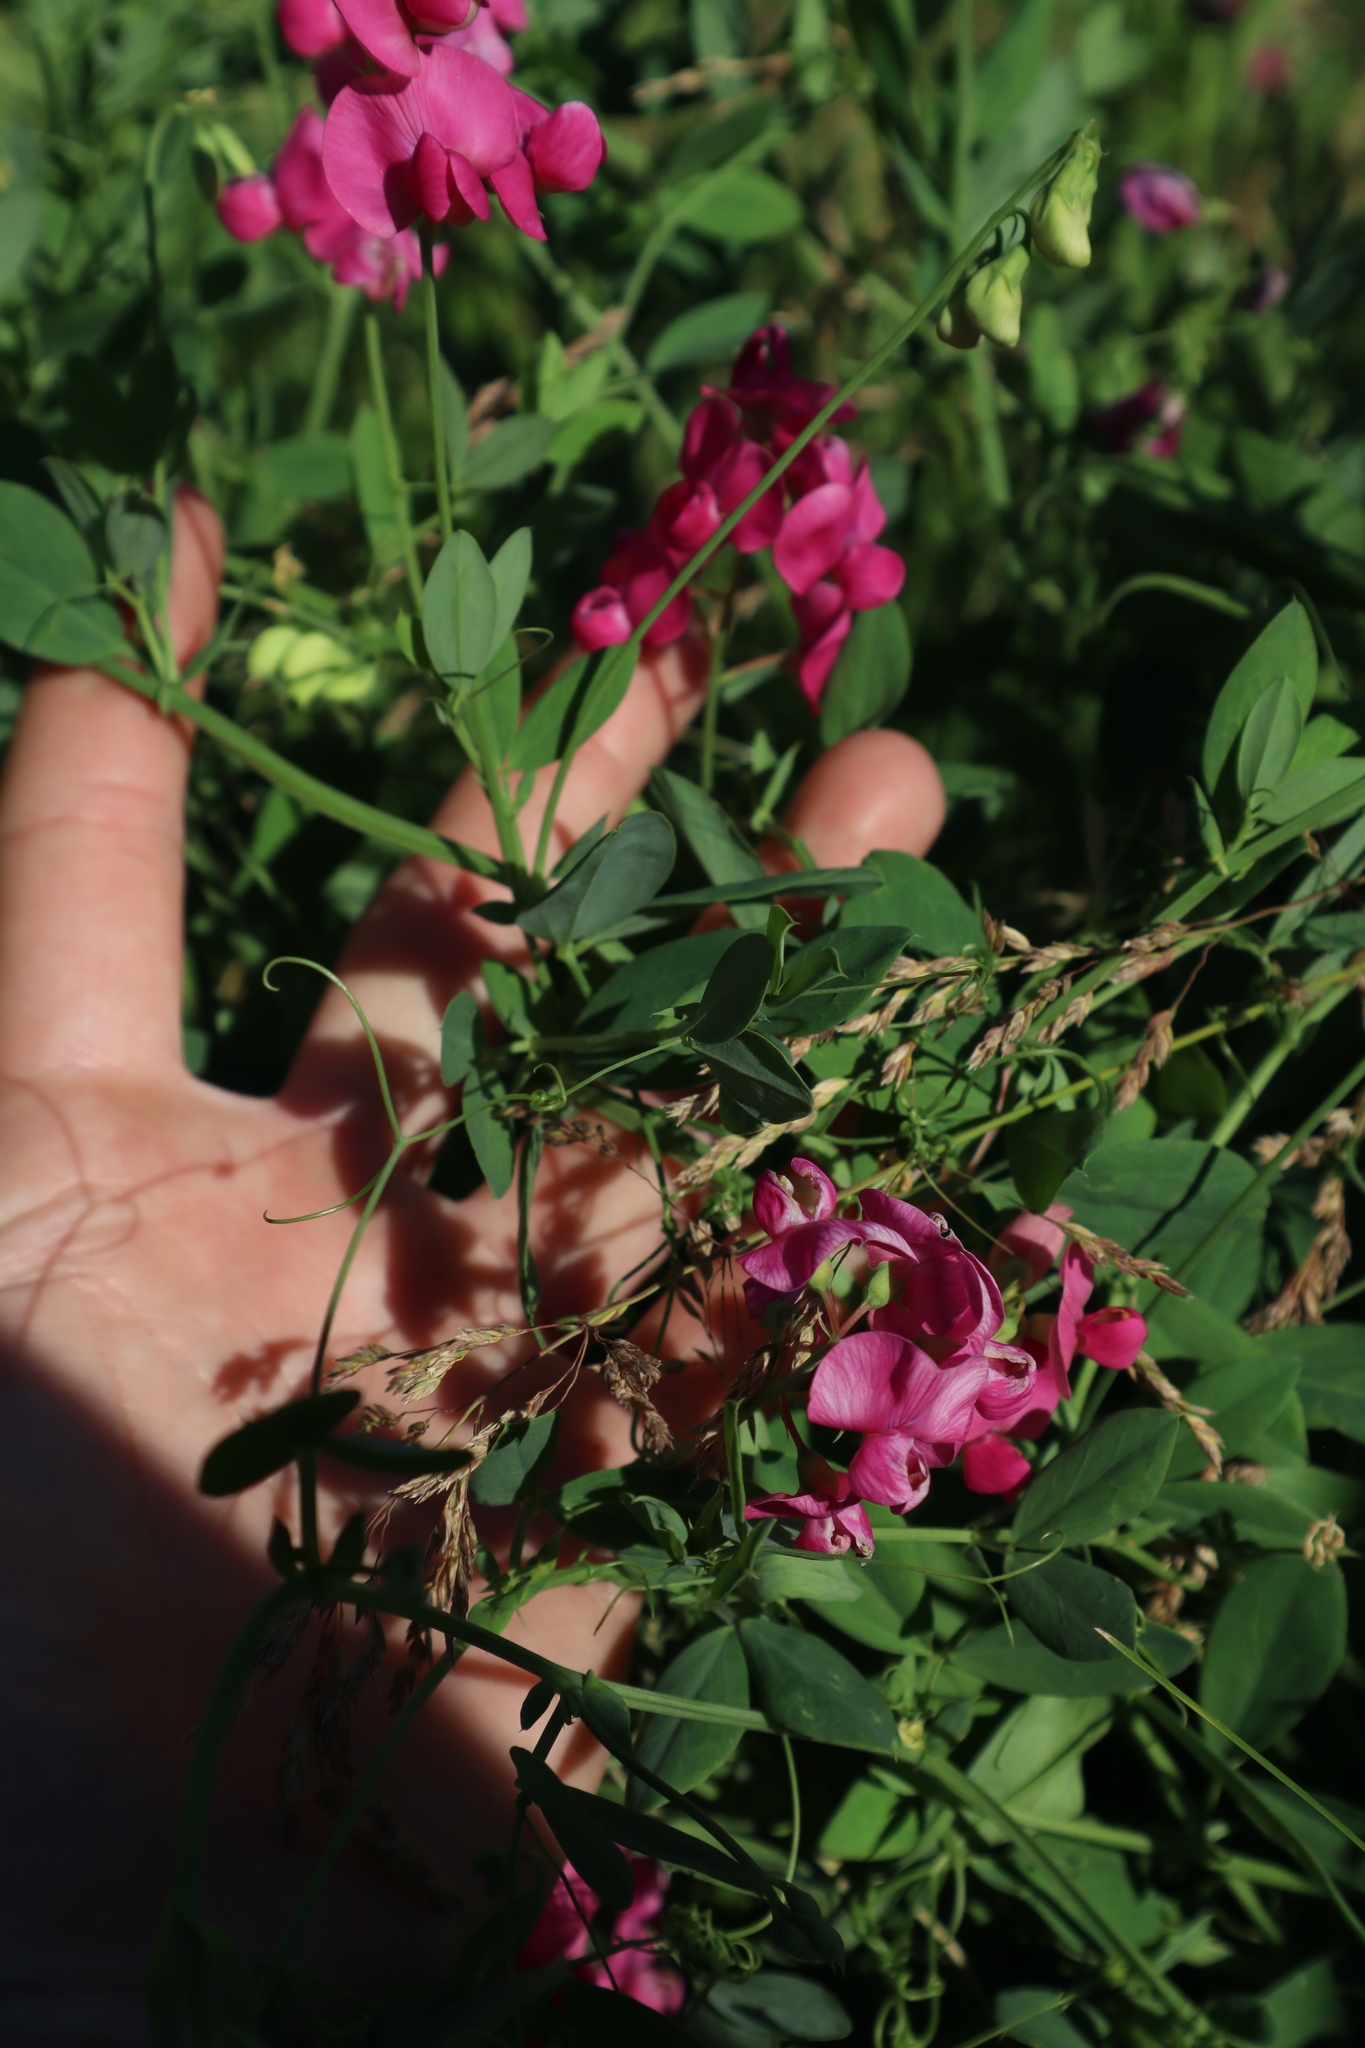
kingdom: Plantae
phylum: Tracheophyta
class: Magnoliopsida
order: Fabales
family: Fabaceae
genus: Lathyrus
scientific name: Lathyrus tuberosus
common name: Tuberous pea
